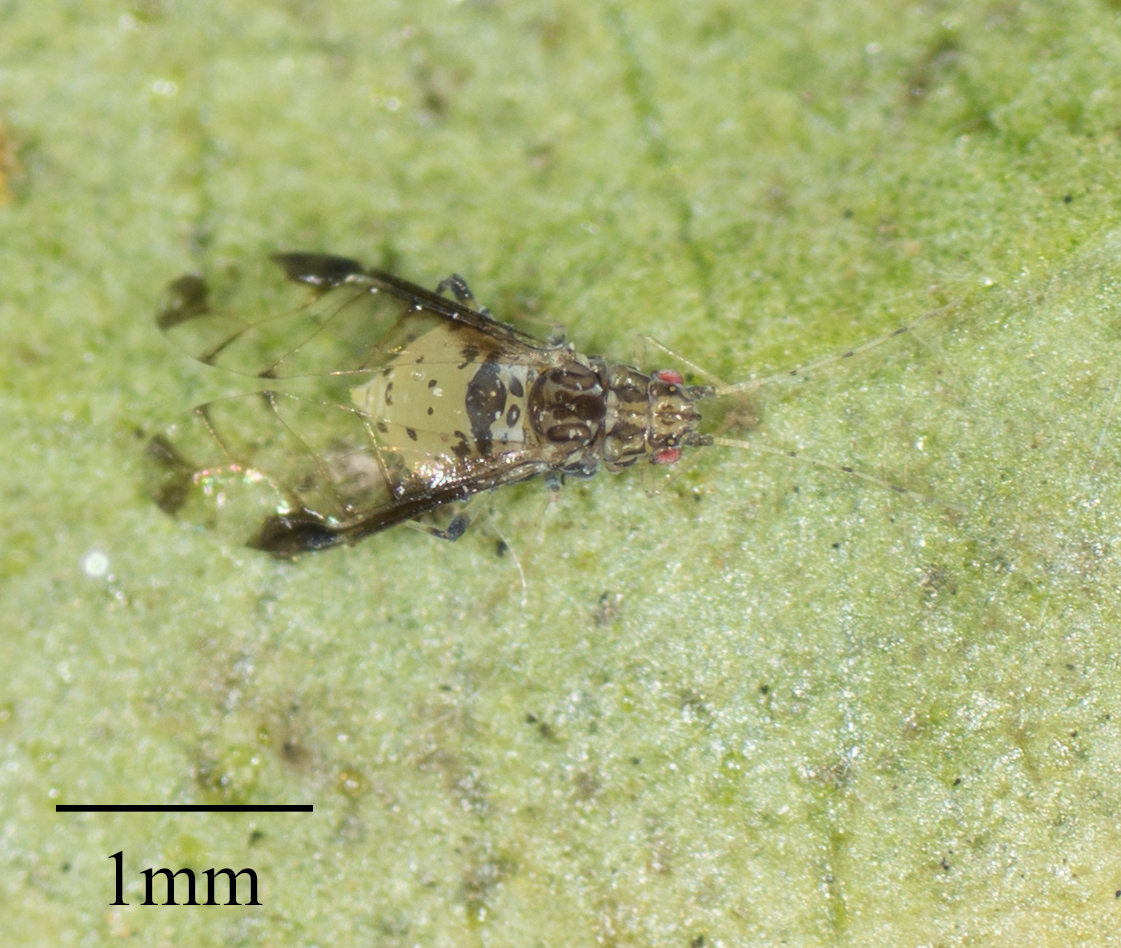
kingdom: Animalia
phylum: Arthropoda
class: Insecta
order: Hemiptera
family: Aphididae
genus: Sarucallis
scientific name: Sarucallis kahawaluokalani
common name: Crapemyrtle aphid
